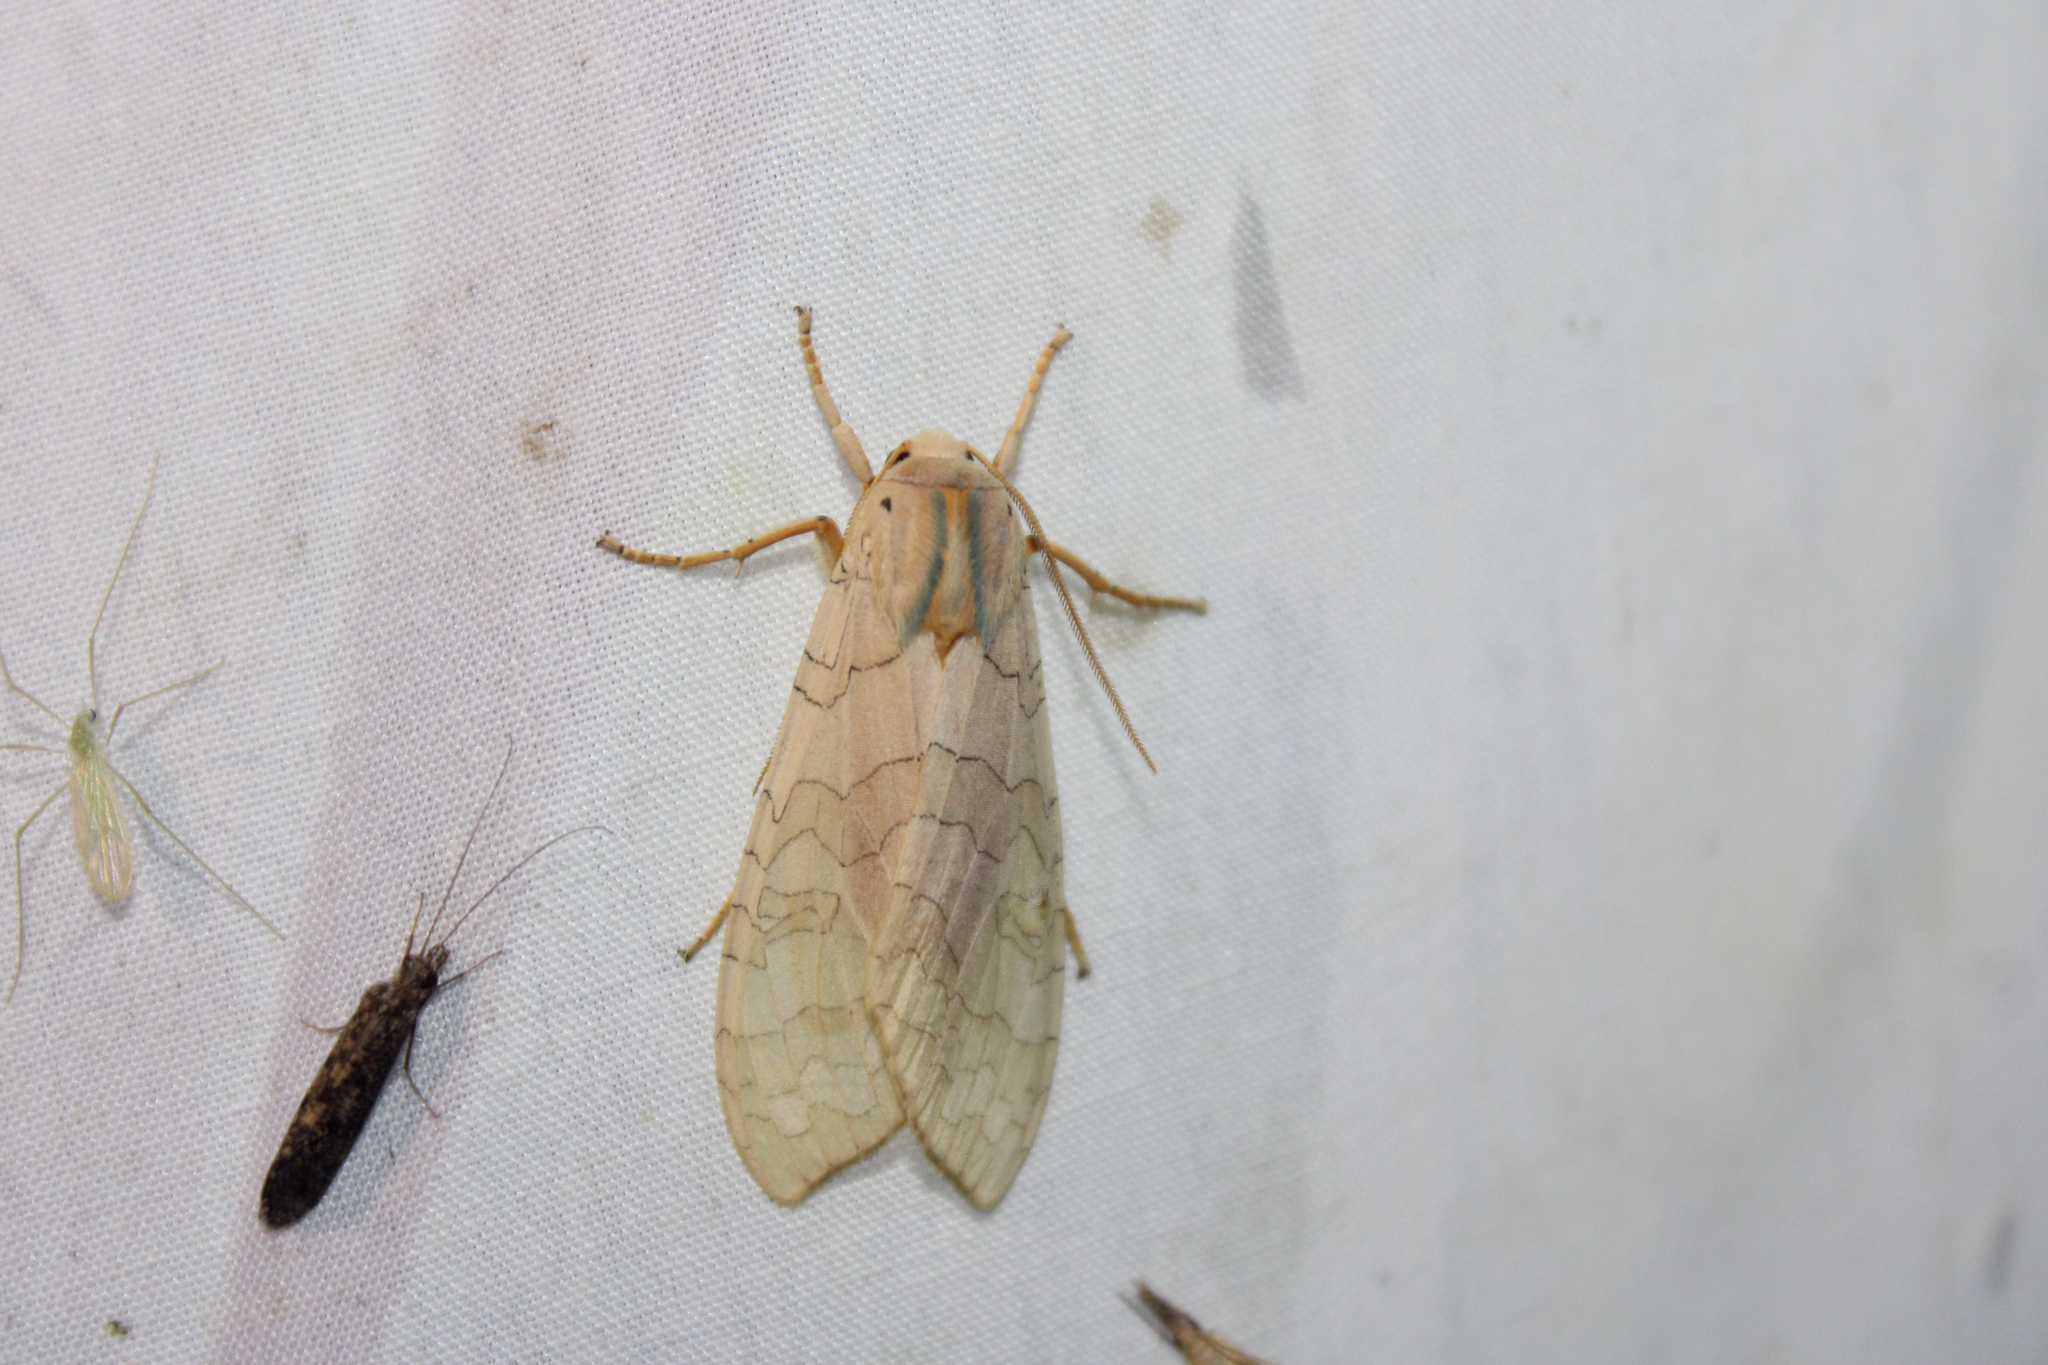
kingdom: Animalia
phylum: Arthropoda
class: Insecta
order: Lepidoptera
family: Erebidae
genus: Halysidota
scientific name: Halysidota
